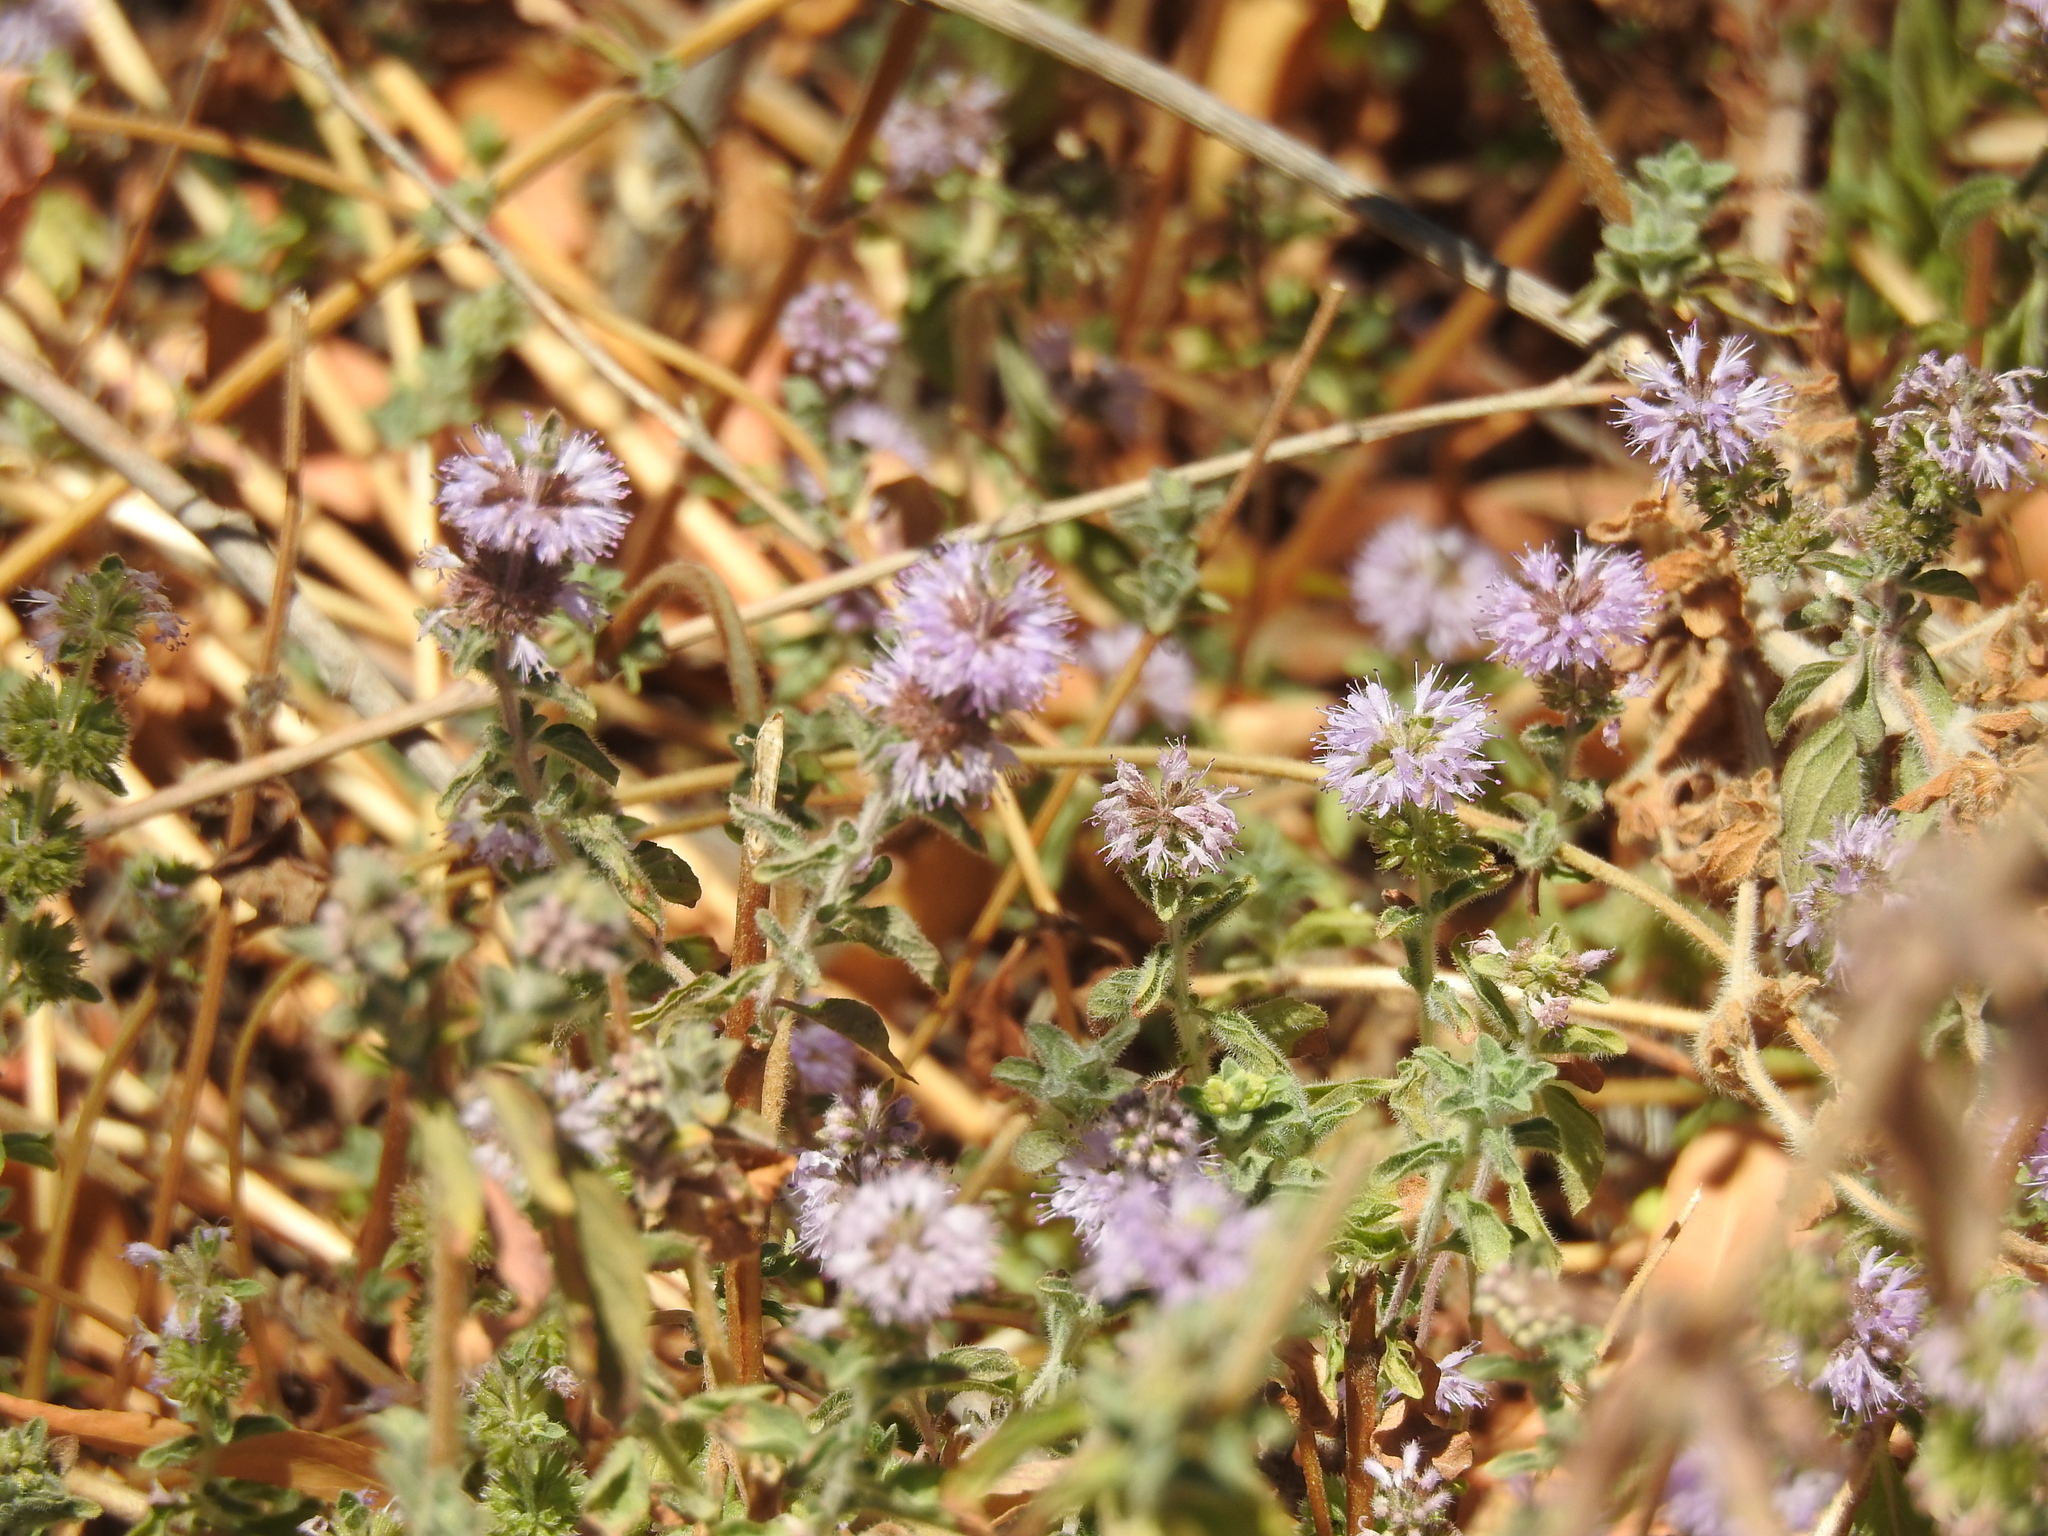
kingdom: Plantae
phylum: Tracheophyta
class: Magnoliopsida
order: Lamiales
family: Lamiaceae
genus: Mentha
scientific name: Mentha pulegium
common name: Pennyroyal
